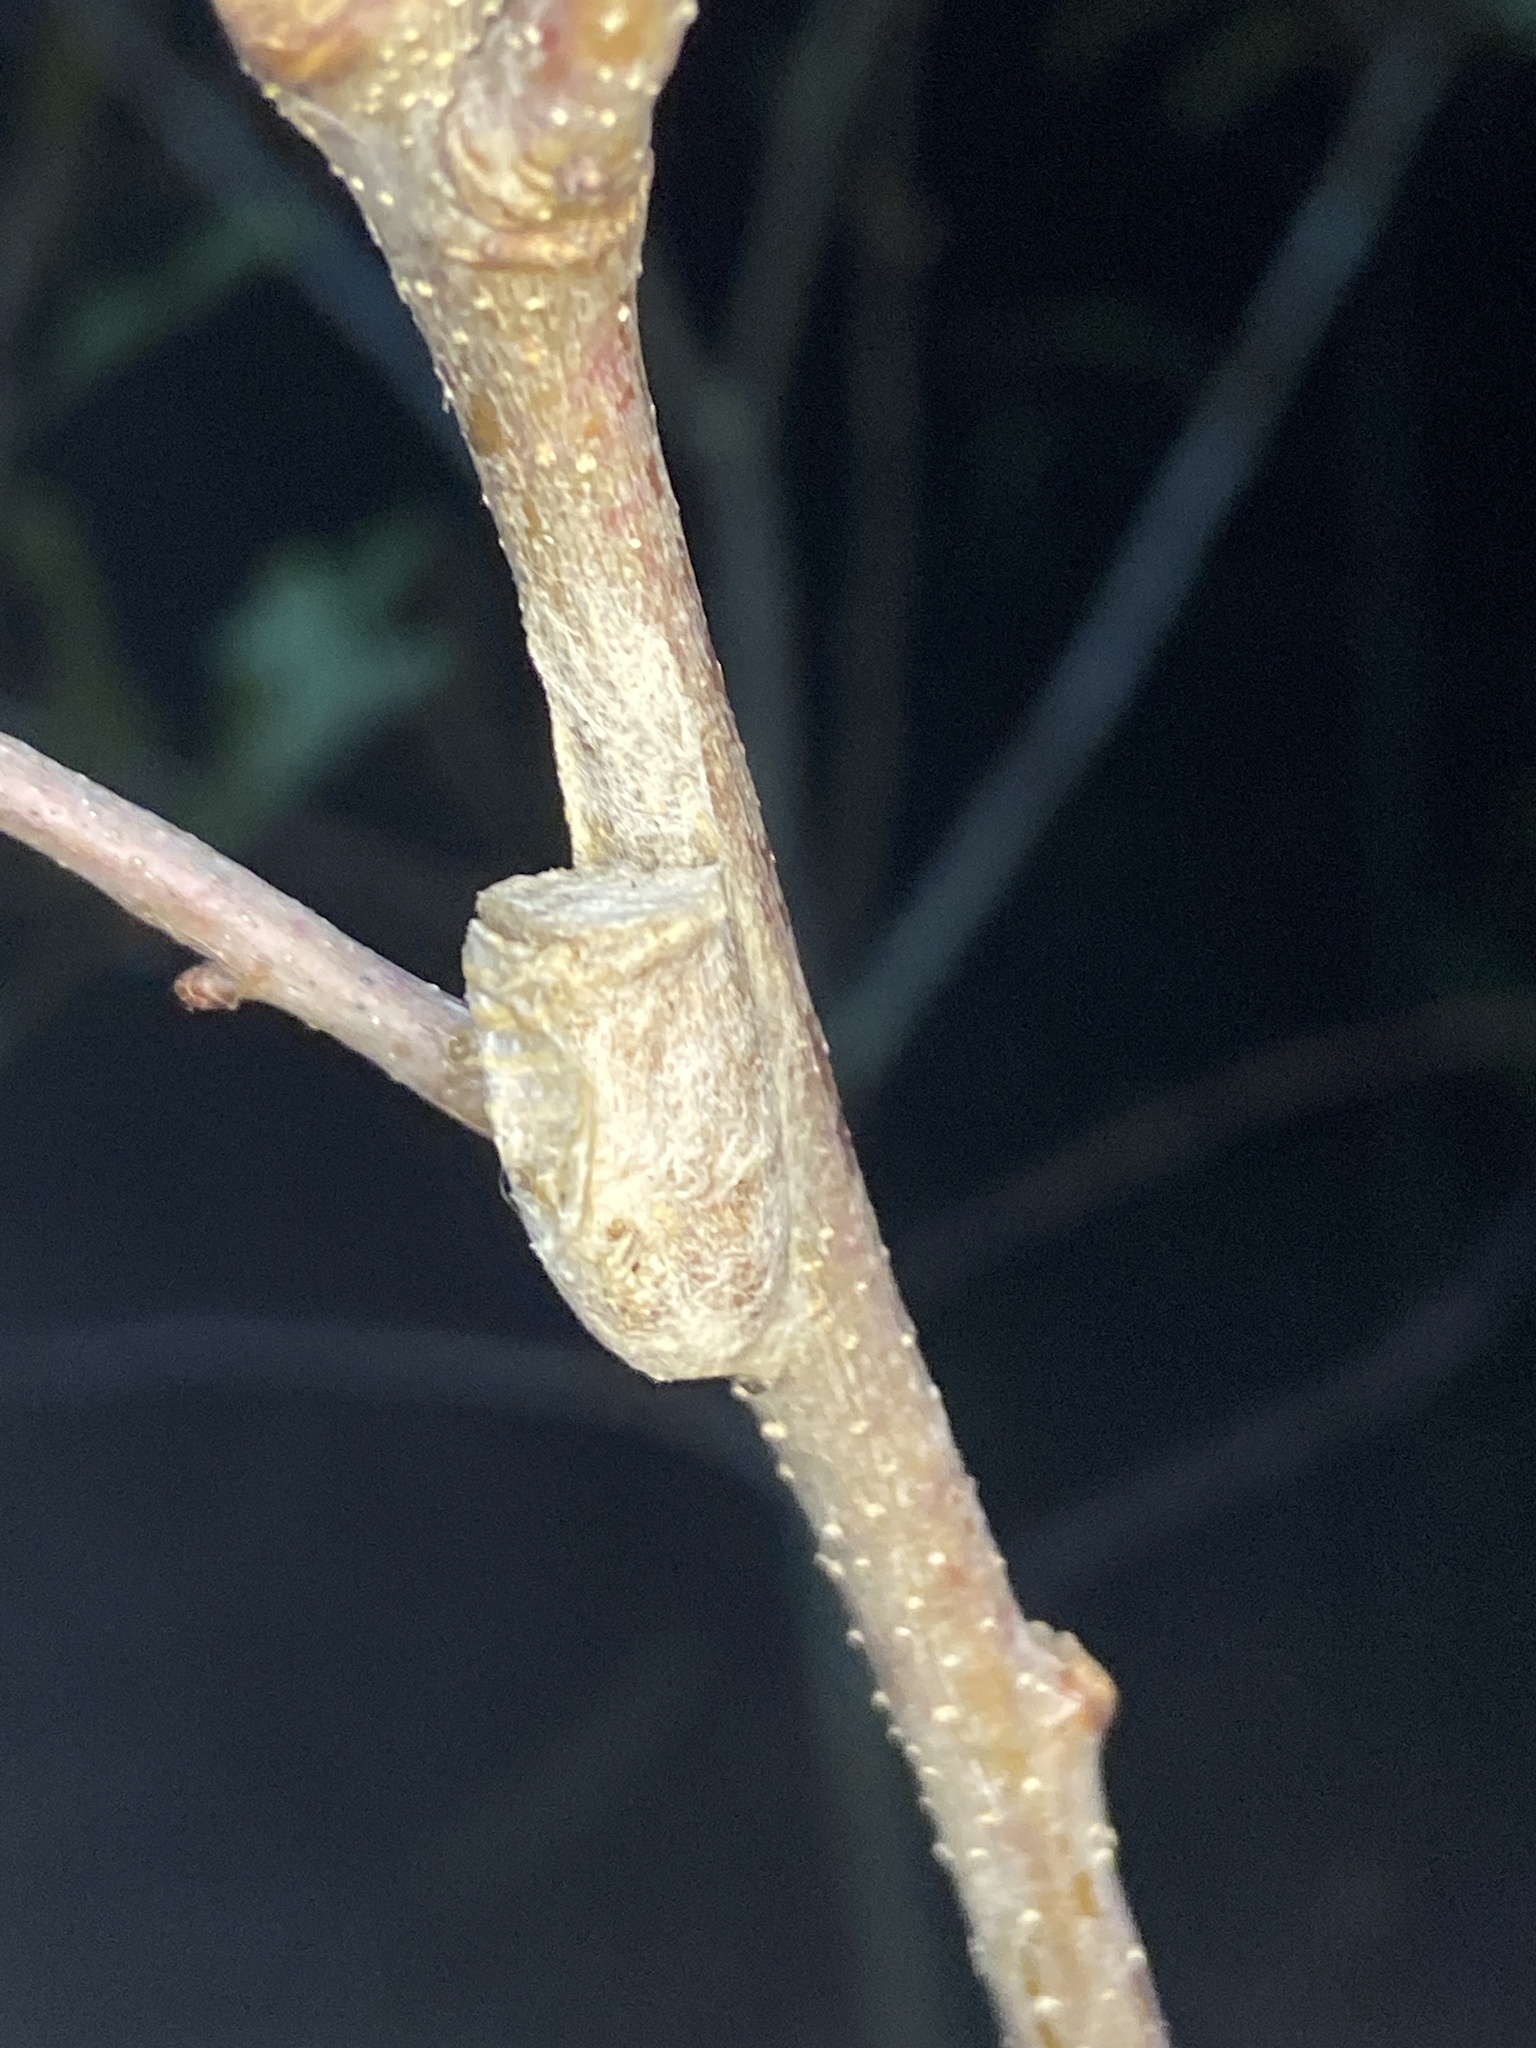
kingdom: Animalia
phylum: Arthropoda
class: Insecta
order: Lepidoptera
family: Megalopygidae
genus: Megalopyge
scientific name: Megalopyge
